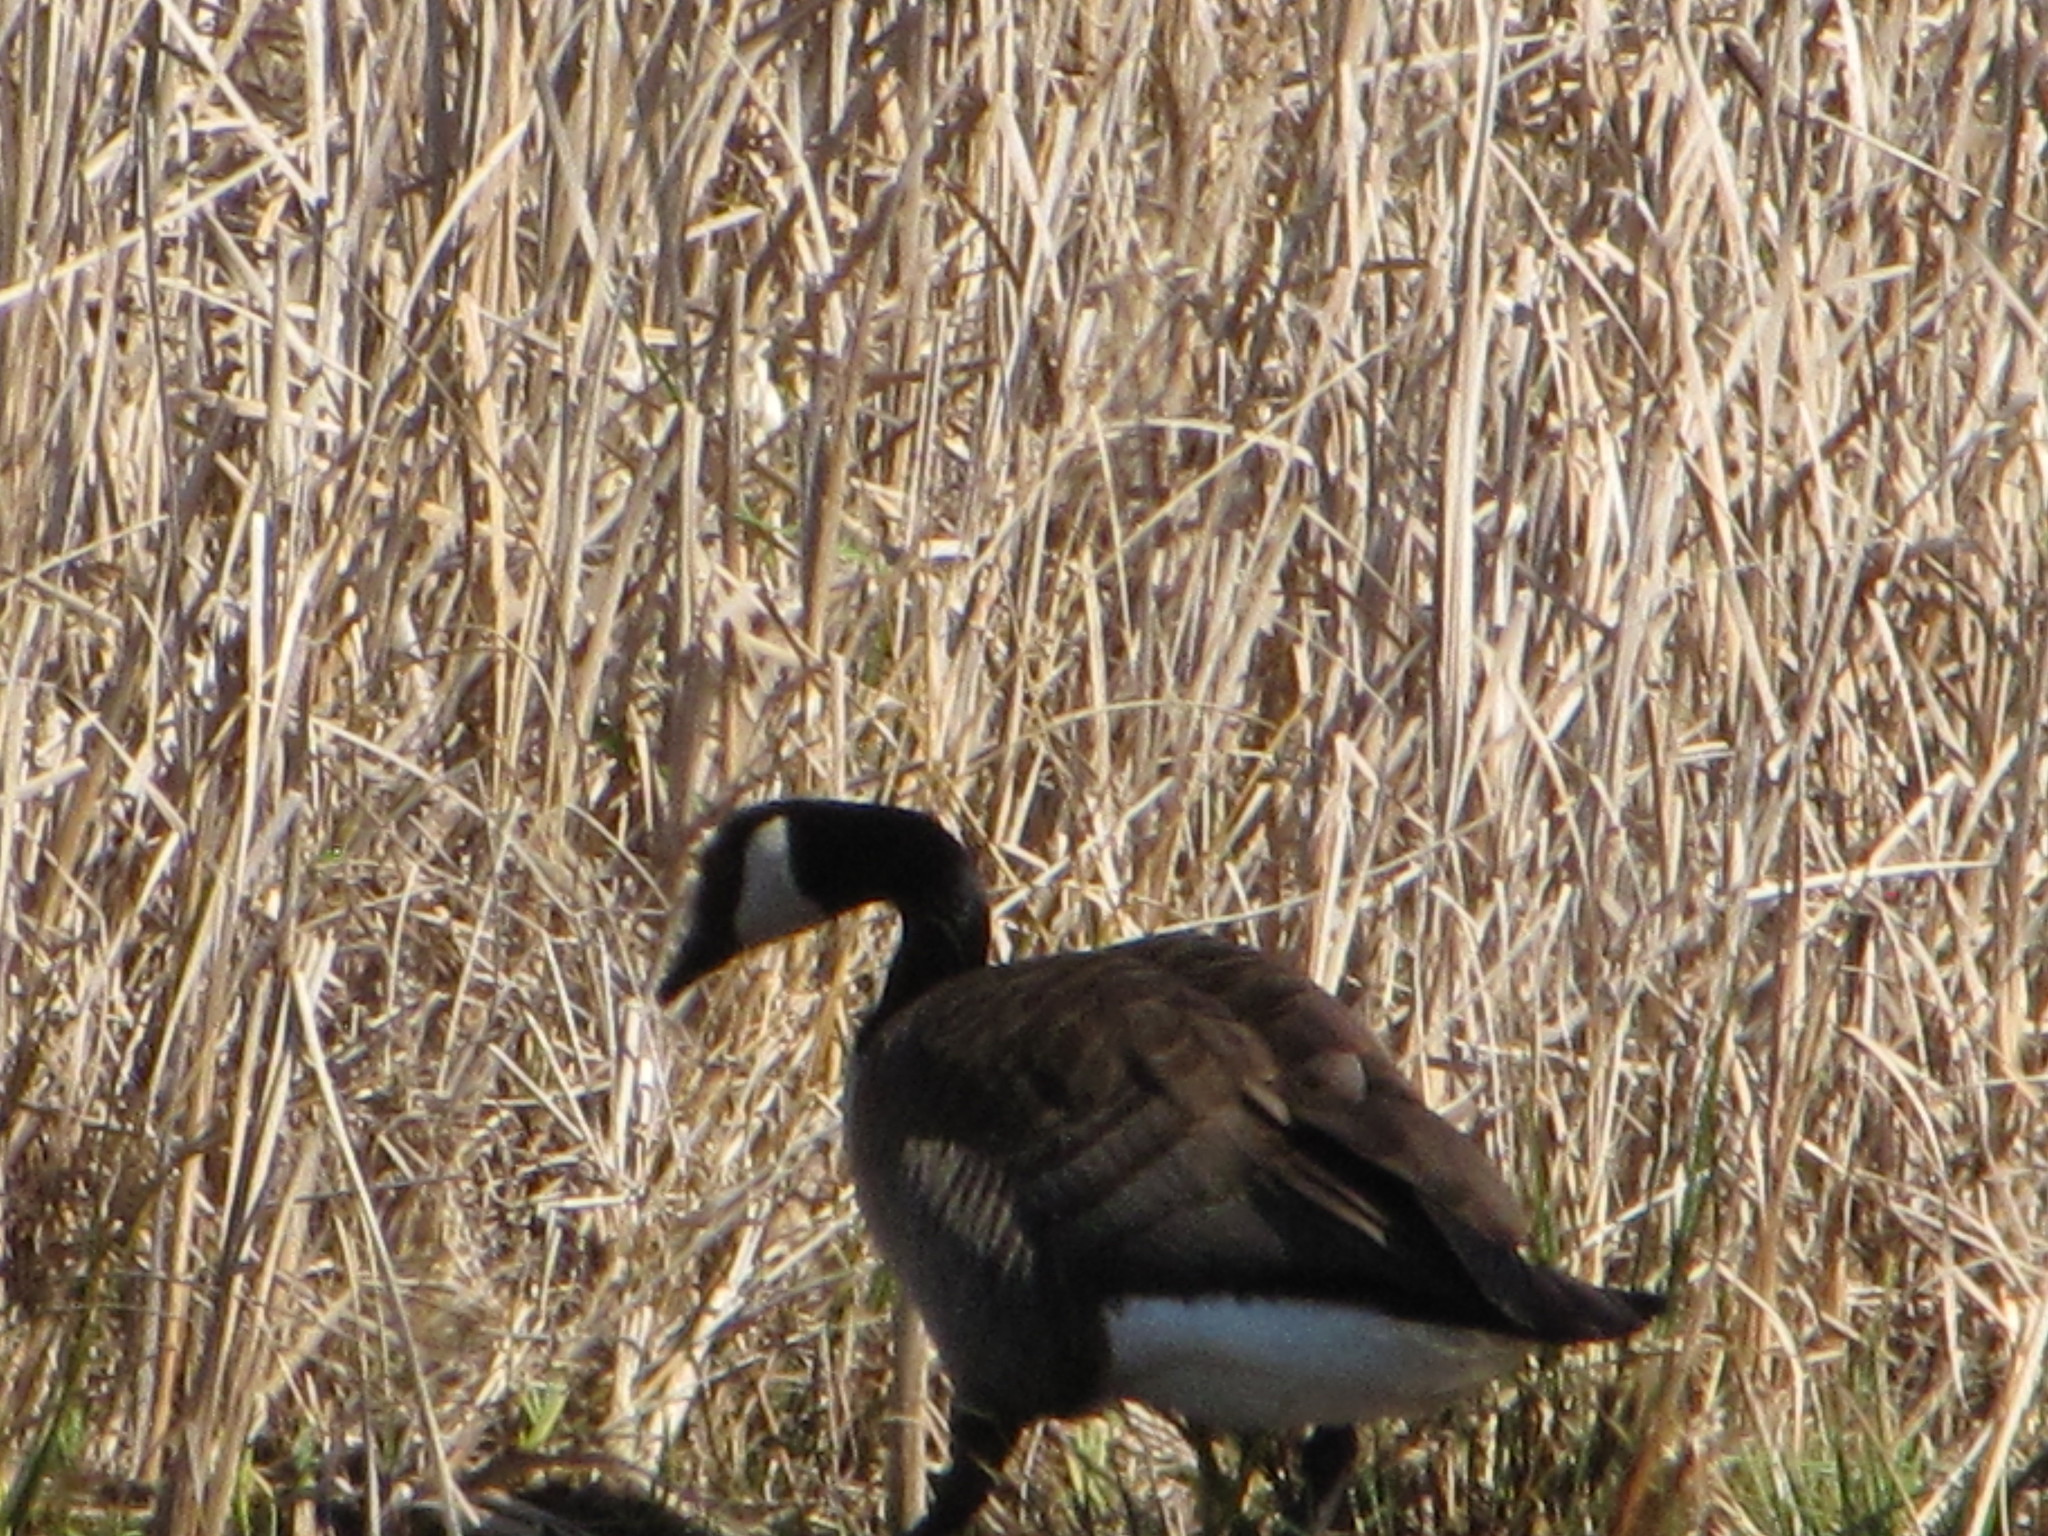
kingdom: Animalia
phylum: Chordata
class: Aves
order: Anseriformes
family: Anatidae
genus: Branta
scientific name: Branta canadensis
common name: Canada goose
